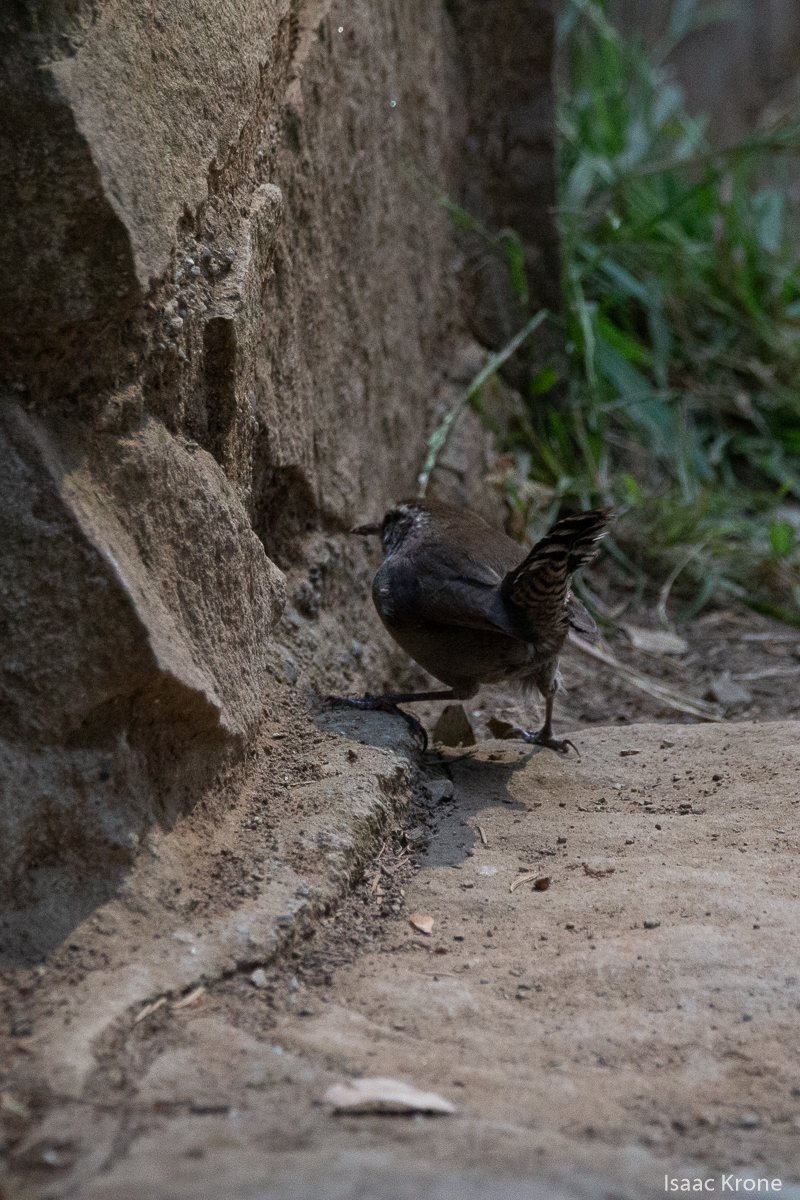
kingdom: Animalia
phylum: Chordata
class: Aves
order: Passeriformes
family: Troglodytidae
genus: Thryomanes
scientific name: Thryomanes bewickii
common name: Bewick's wren
